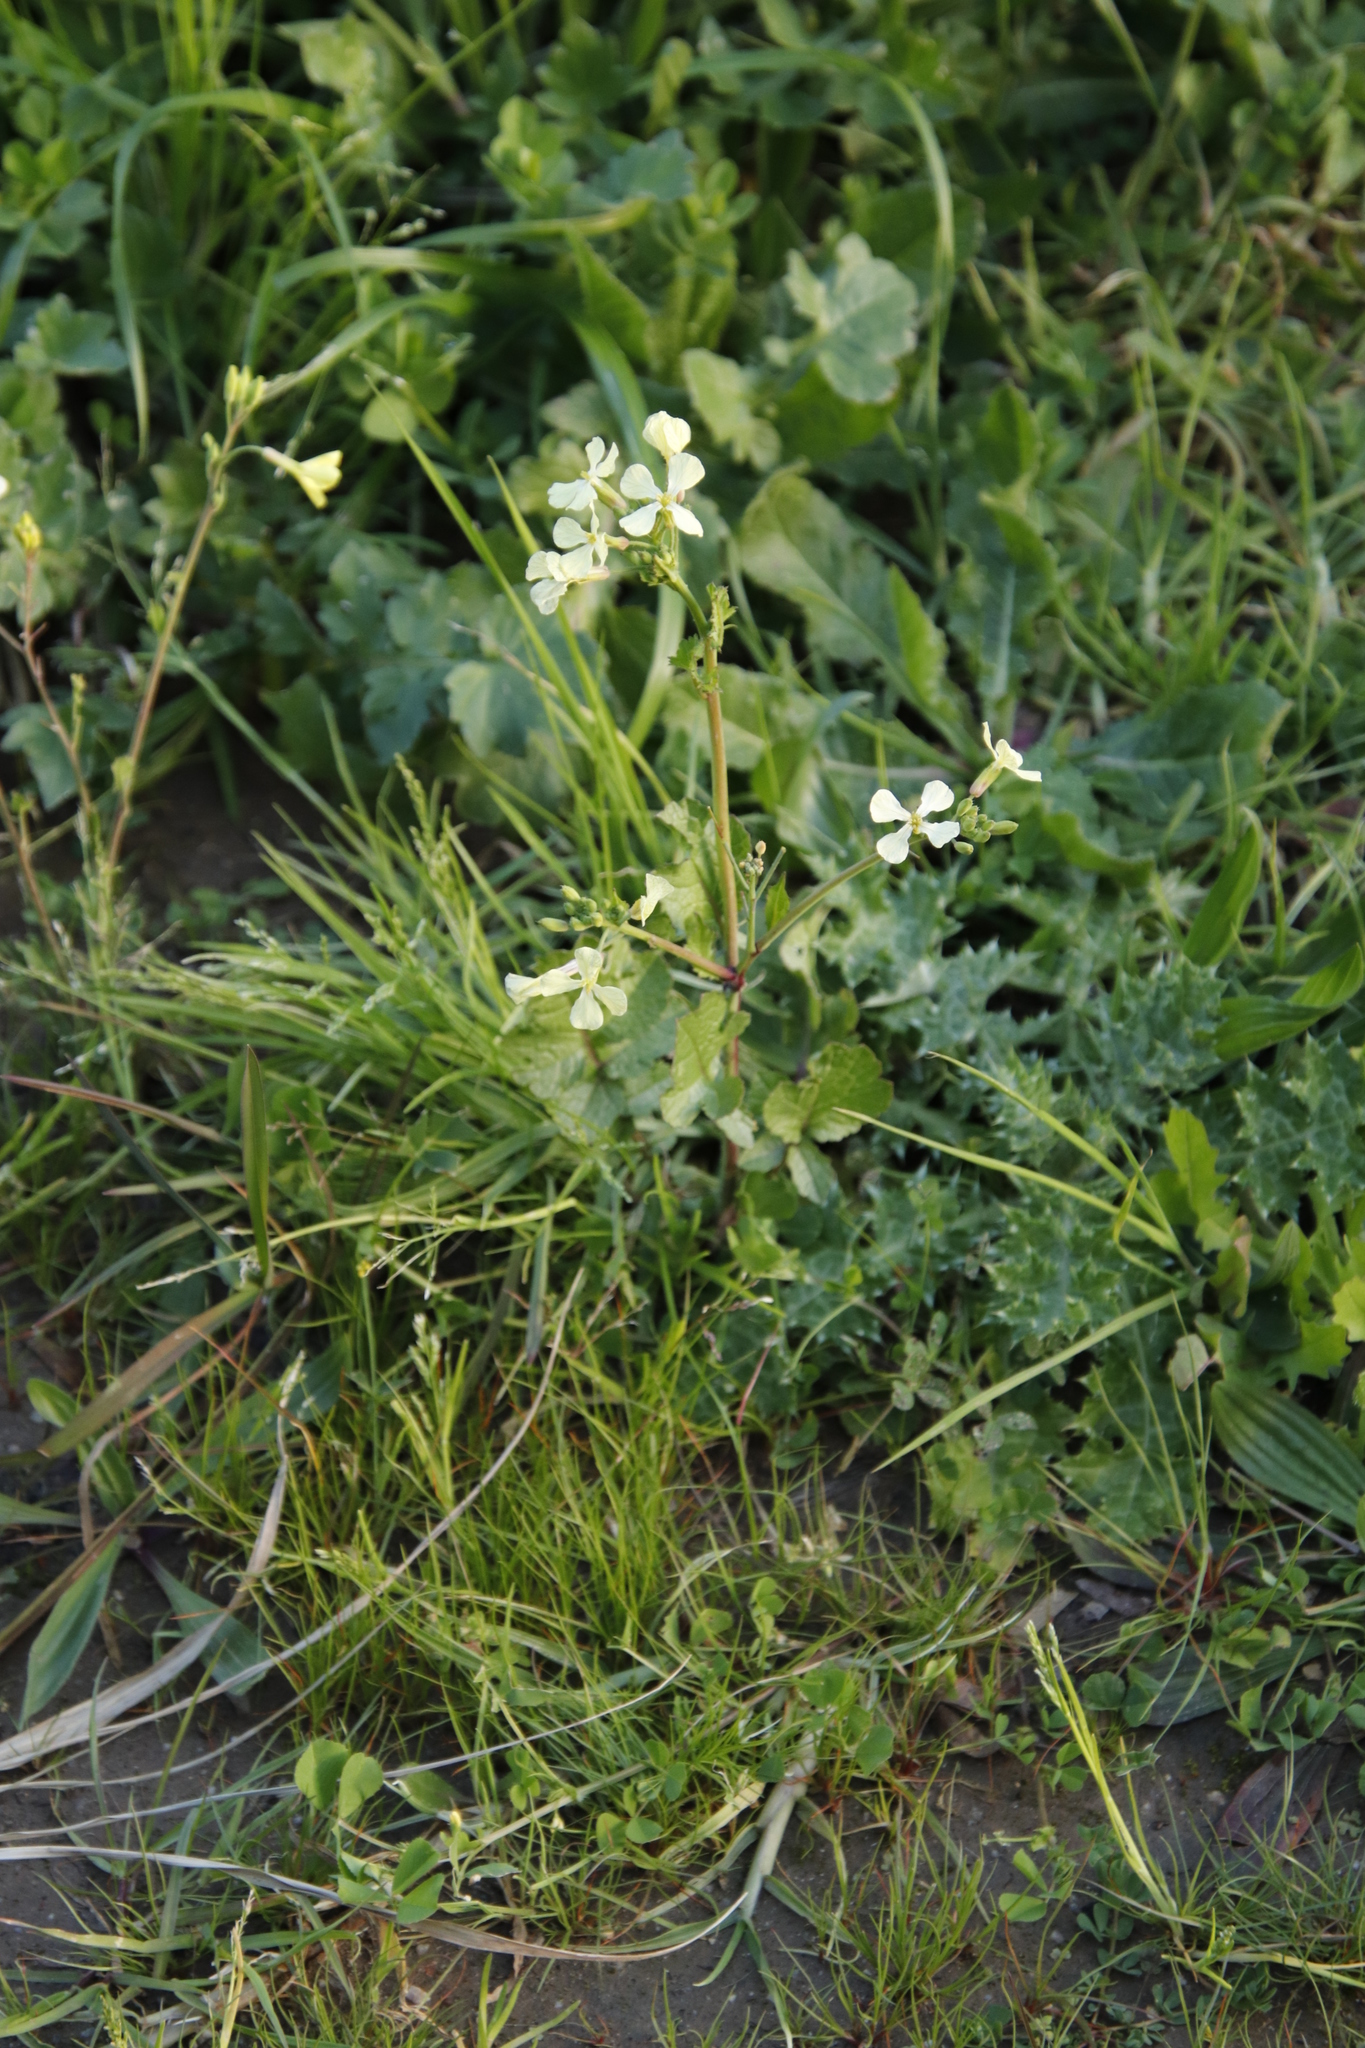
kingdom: Plantae
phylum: Tracheophyta
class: Magnoliopsida
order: Brassicales
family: Brassicaceae
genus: Raphanus
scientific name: Raphanus raphanistrum
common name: Wild radish
